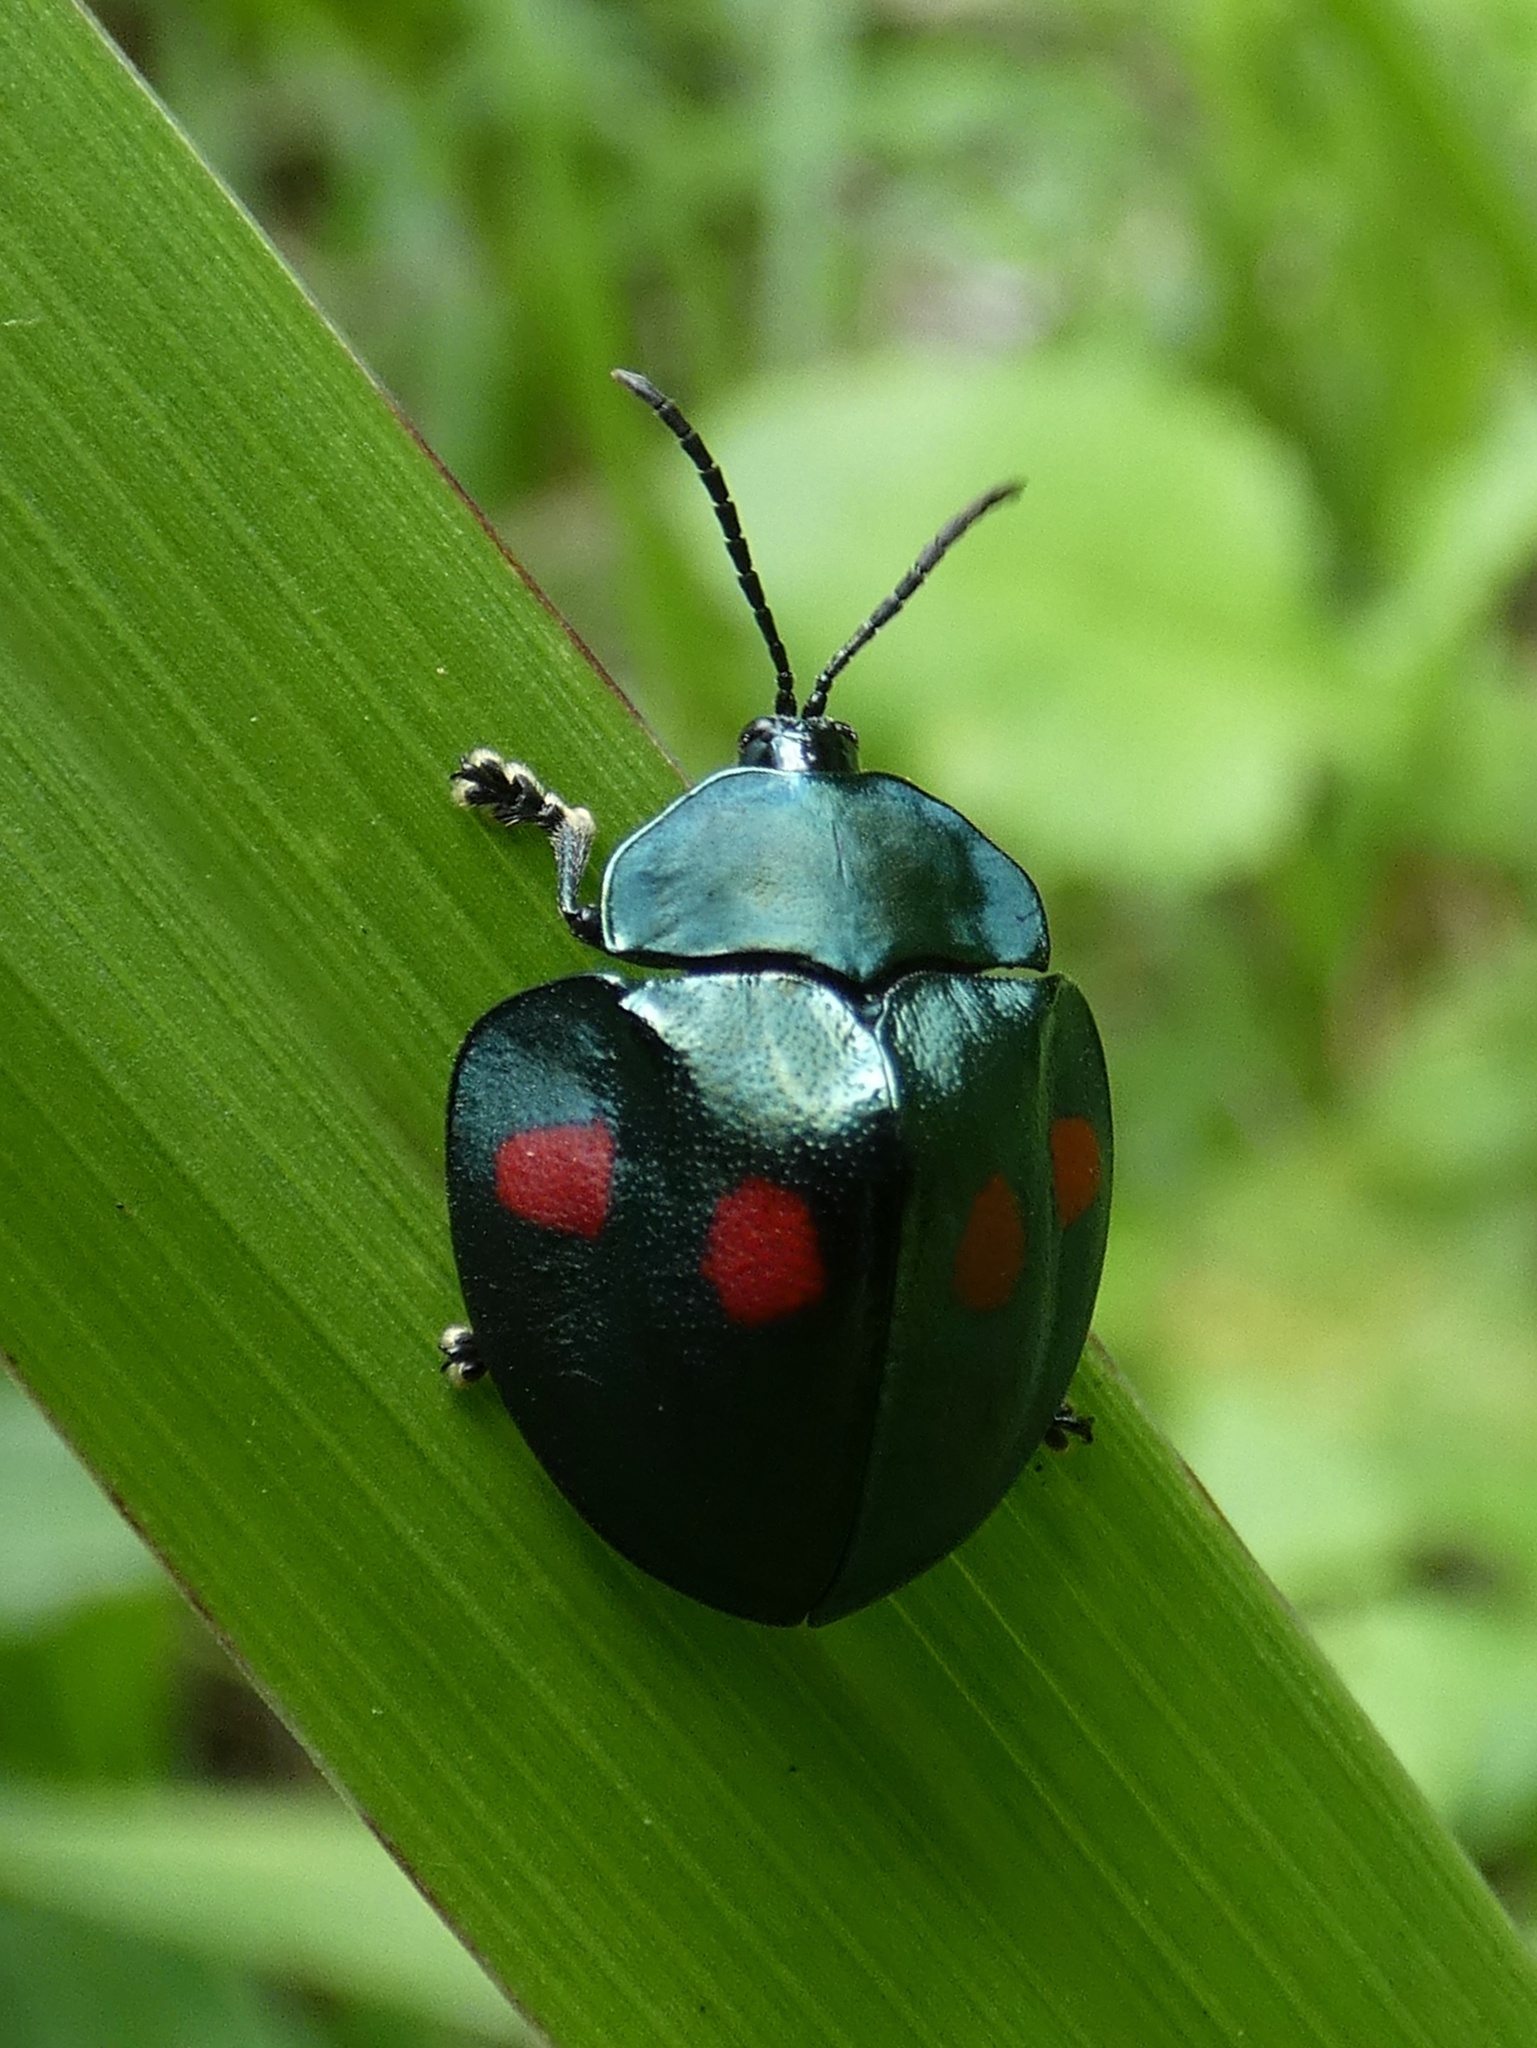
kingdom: Animalia
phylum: Arthropoda
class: Insecta
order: Coleoptera
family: Chrysomelidae
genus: Stolas
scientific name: Stolas lebasii
